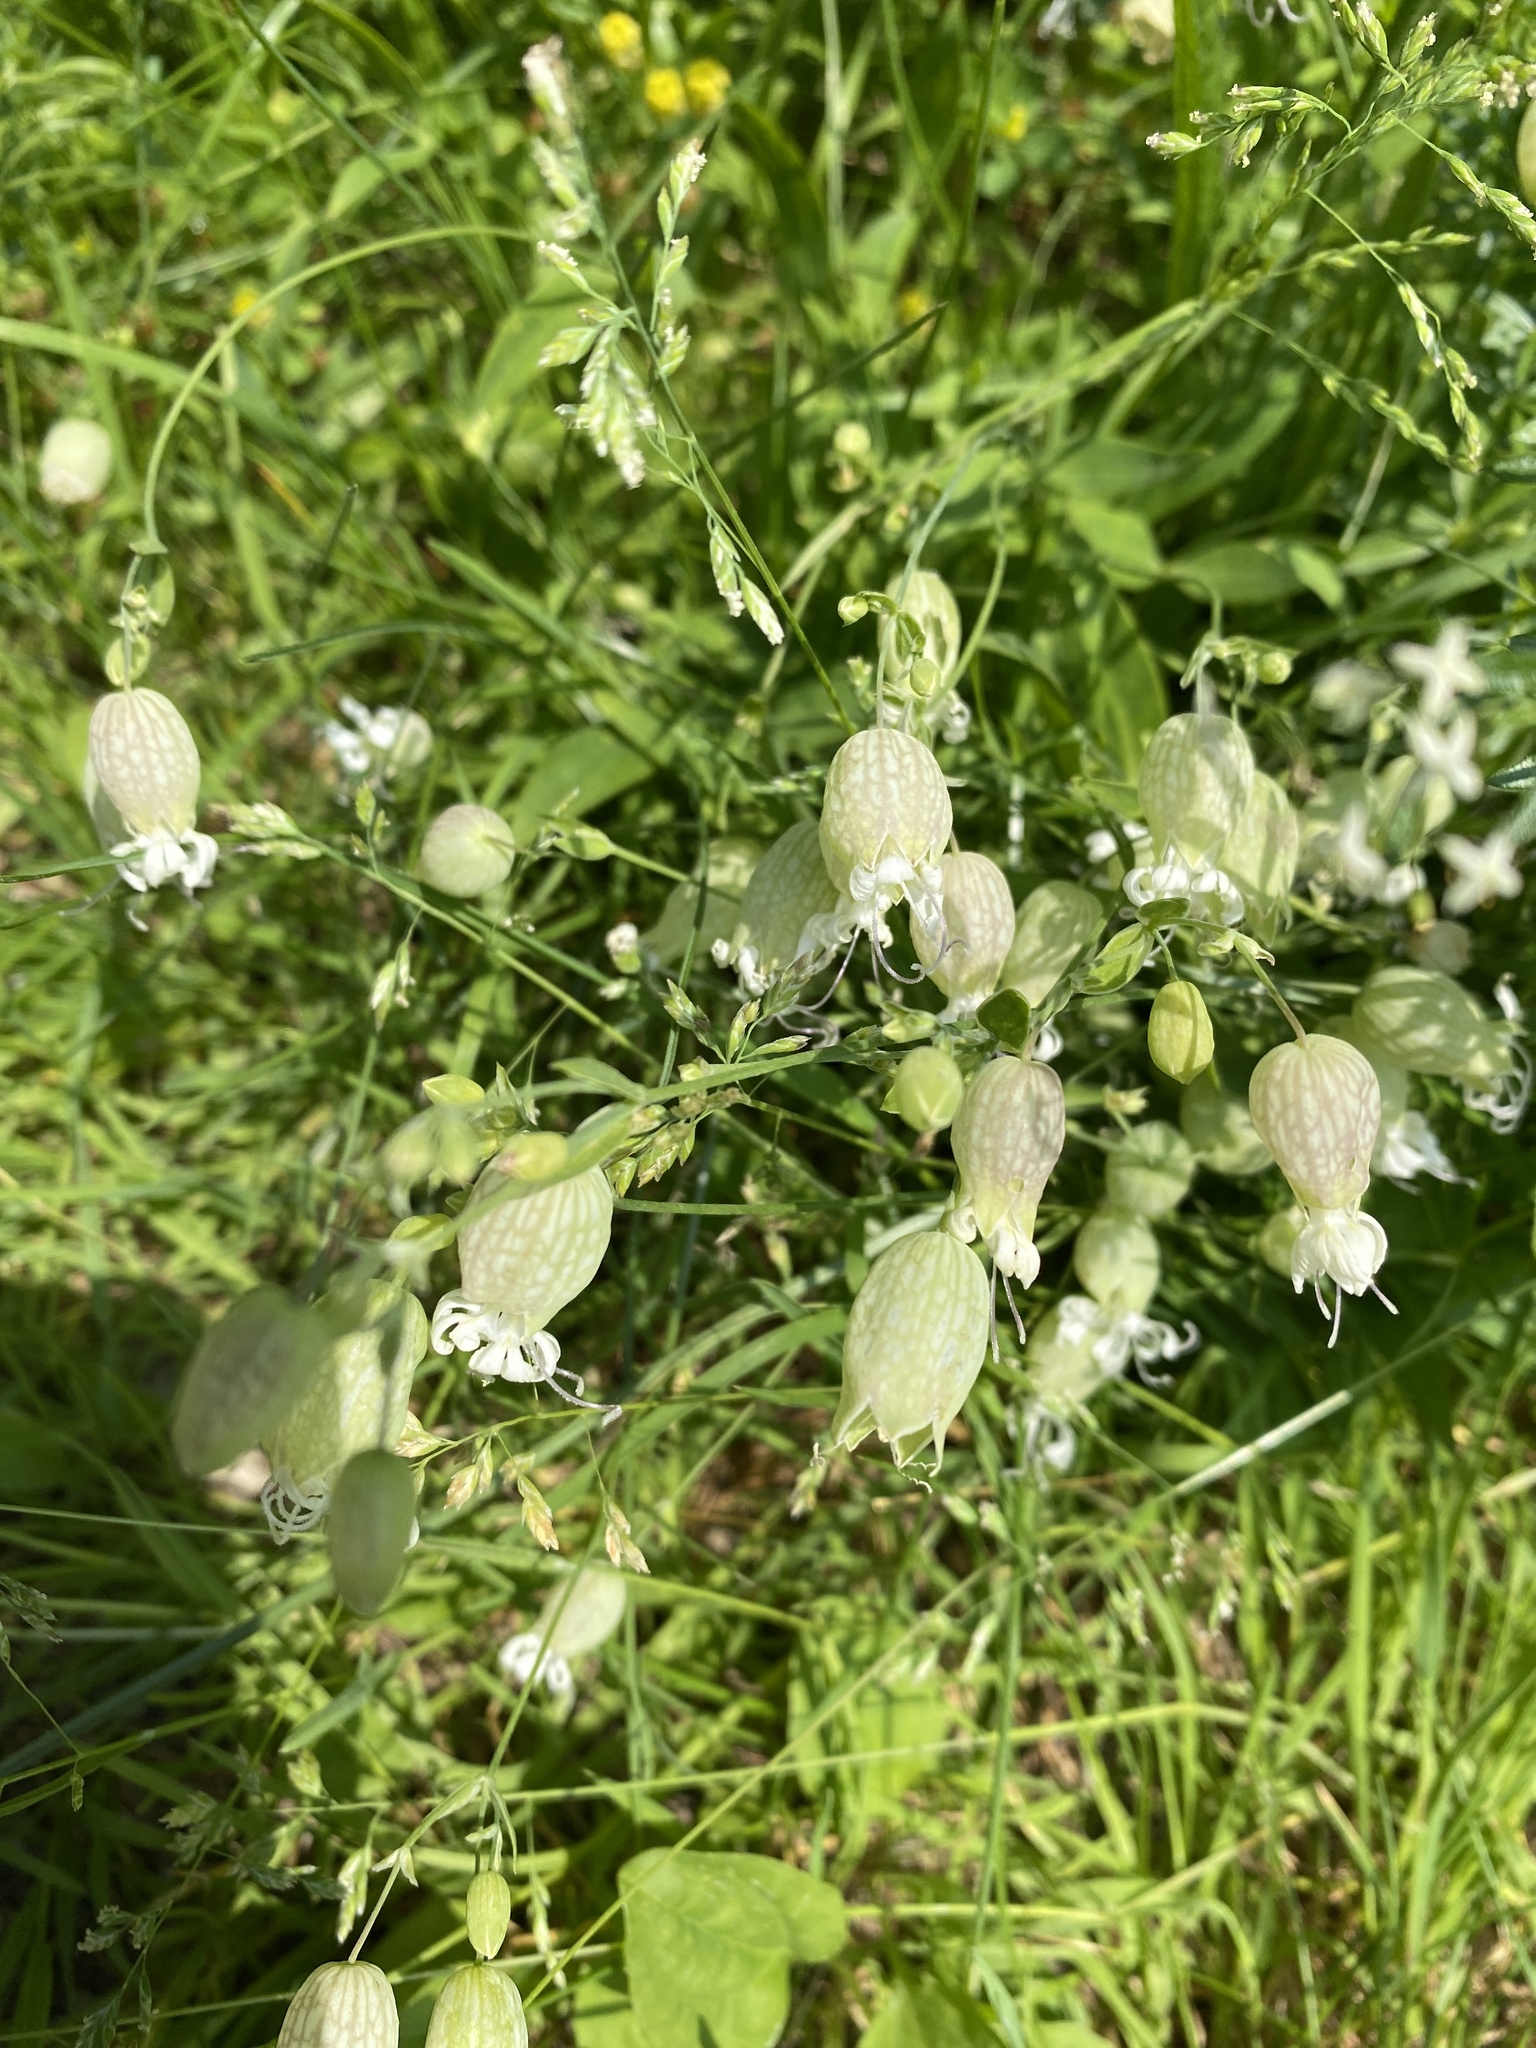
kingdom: Plantae
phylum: Tracheophyta
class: Magnoliopsida
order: Caryophyllales
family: Caryophyllaceae
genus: Silene
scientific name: Silene vulgaris
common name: Bladder campion
